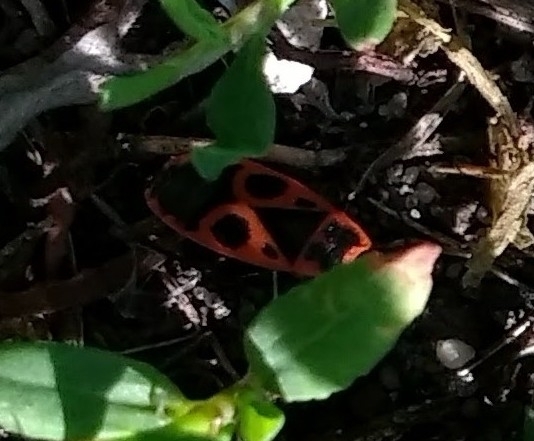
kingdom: Animalia
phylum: Arthropoda
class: Insecta
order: Hemiptera
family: Pyrrhocoridae
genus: Pyrrhocoris
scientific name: Pyrrhocoris apterus
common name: Firebug
